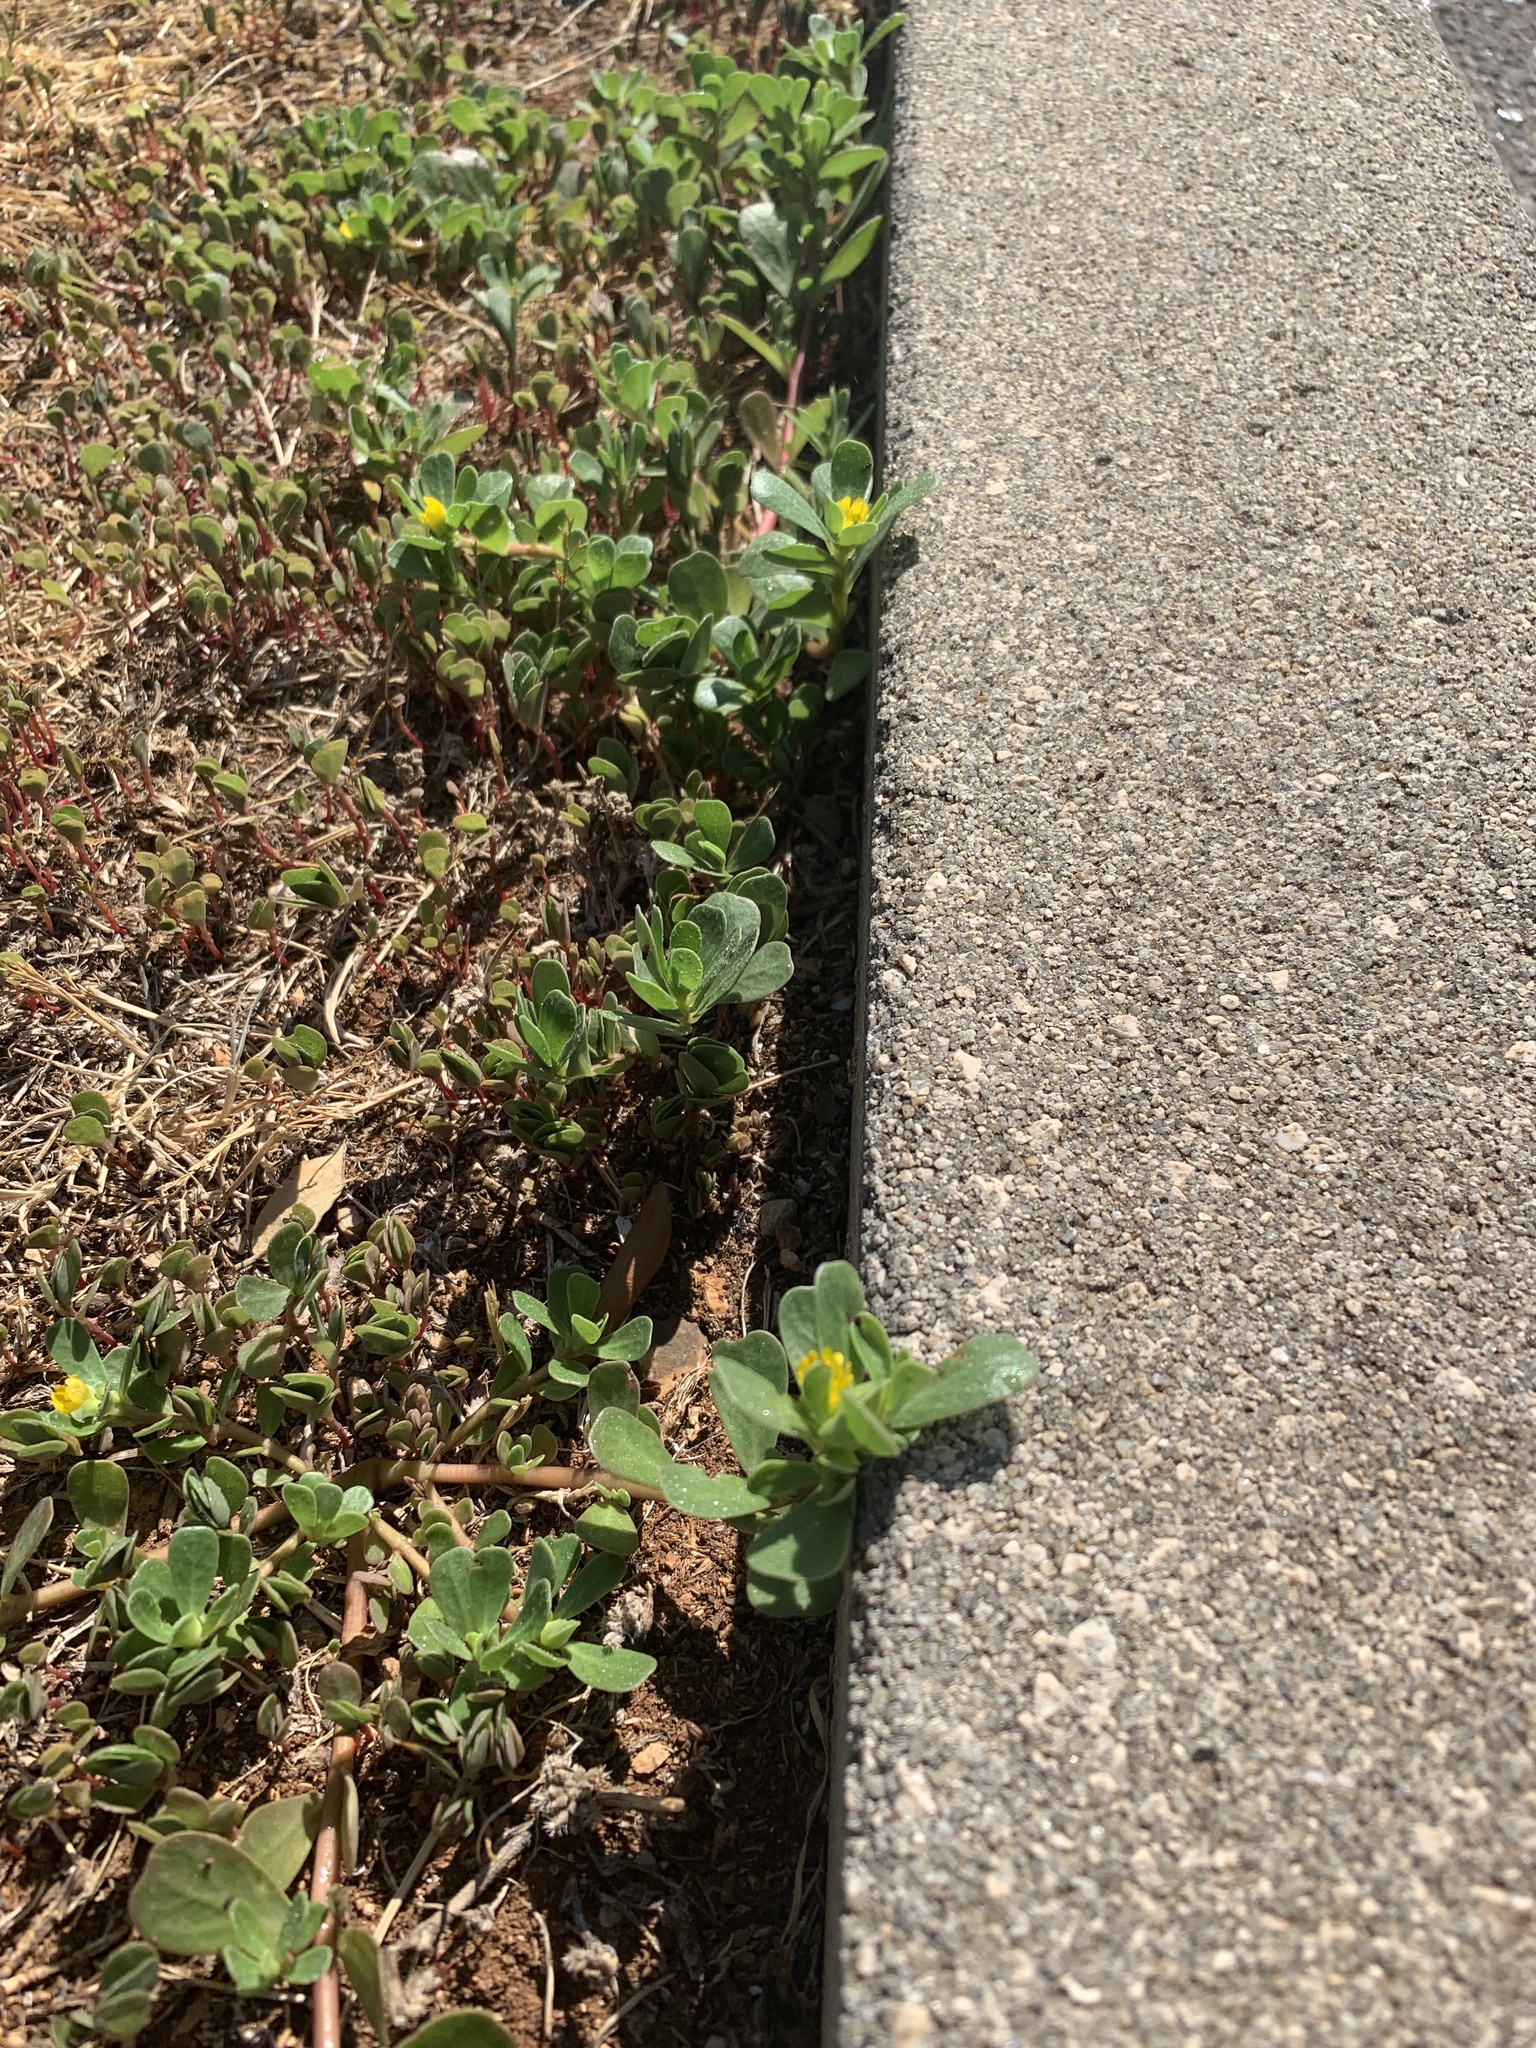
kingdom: Plantae
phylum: Tracheophyta
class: Magnoliopsida
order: Caryophyllales
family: Portulacaceae
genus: Portulaca
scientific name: Portulaca oleracea
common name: Common purslane
